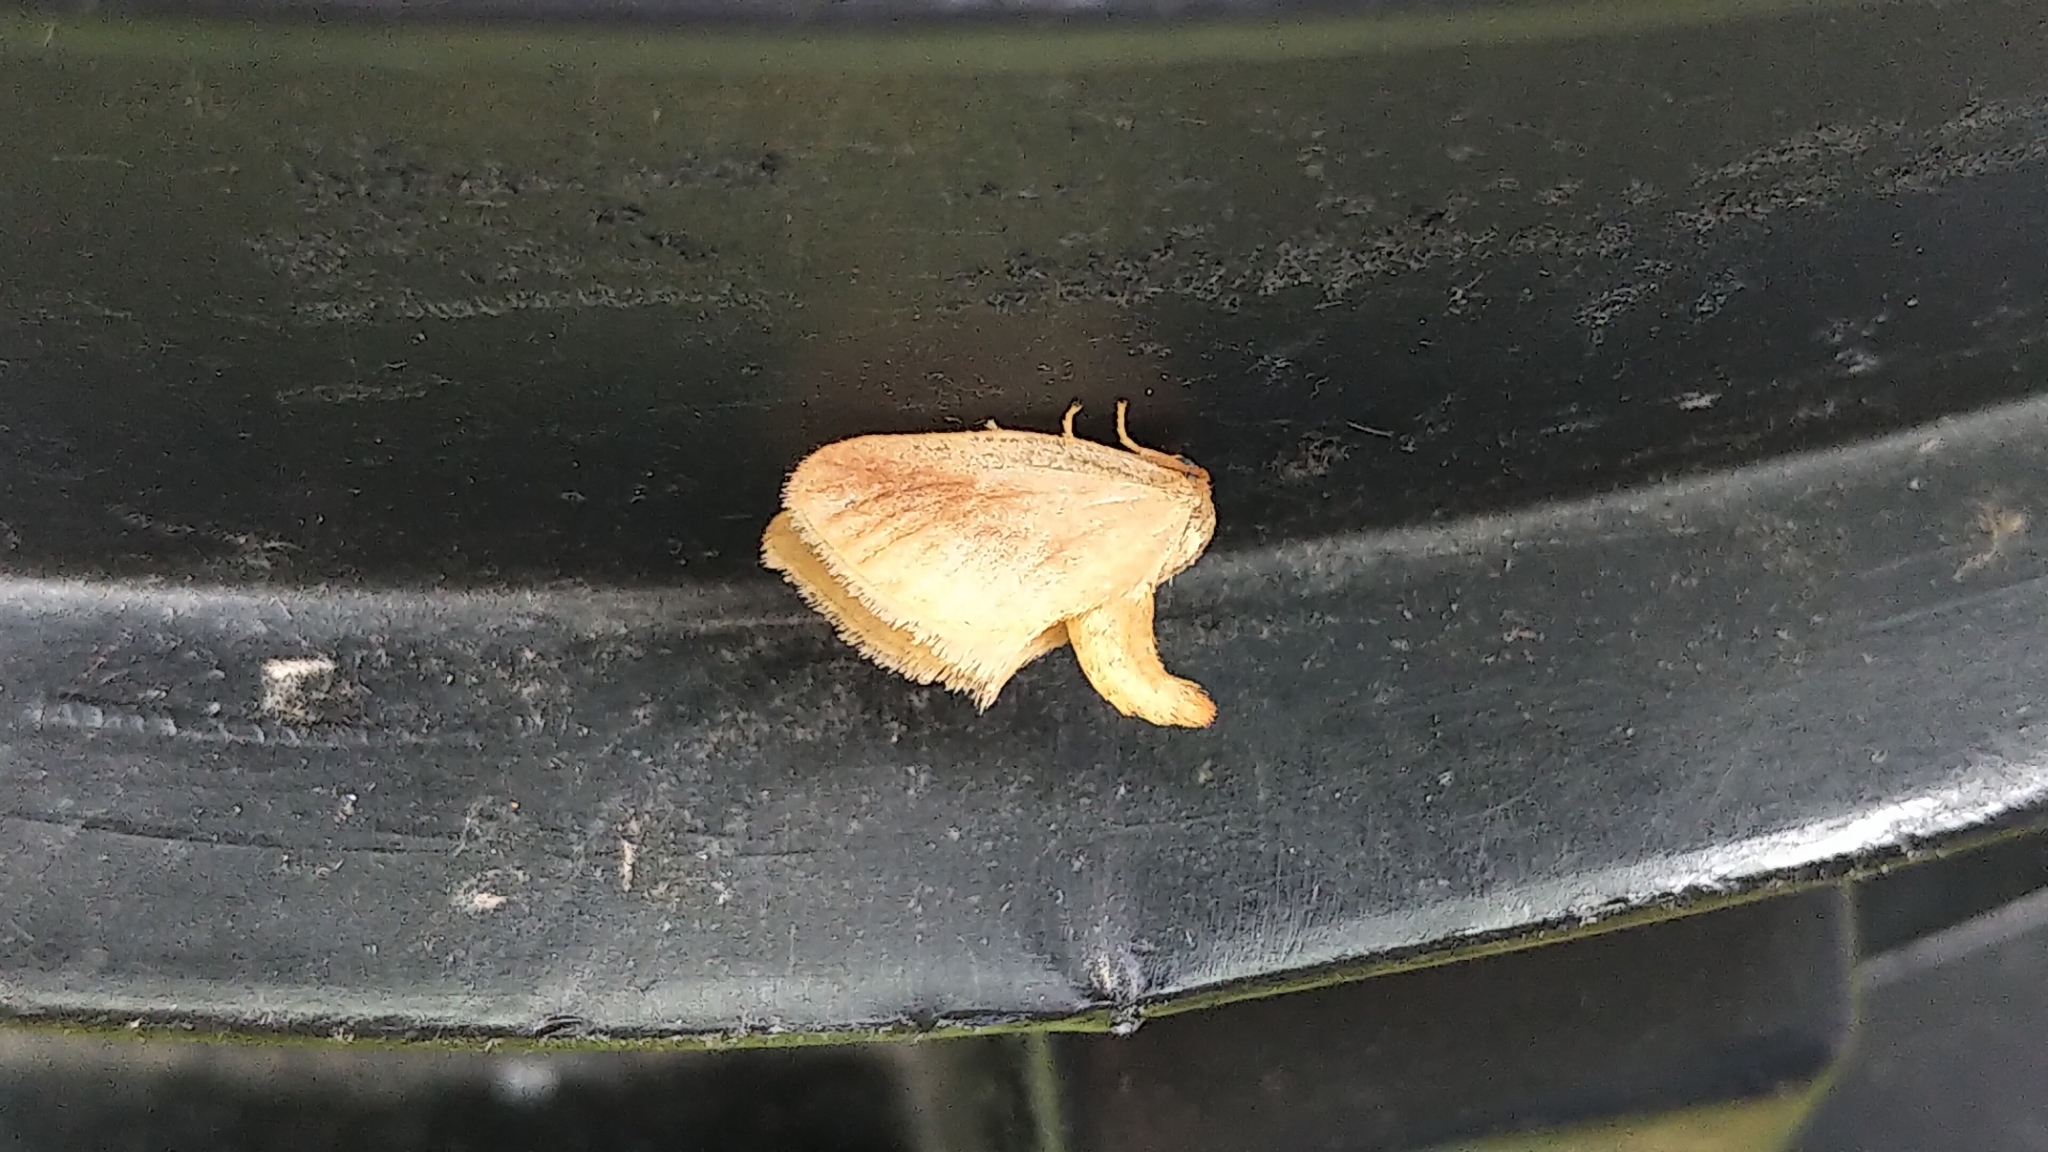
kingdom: Animalia
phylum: Arthropoda
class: Insecta
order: Lepidoptera
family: Limacodidae
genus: Tortricidia
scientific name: Tortricidia testacea
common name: Early button slug moth
